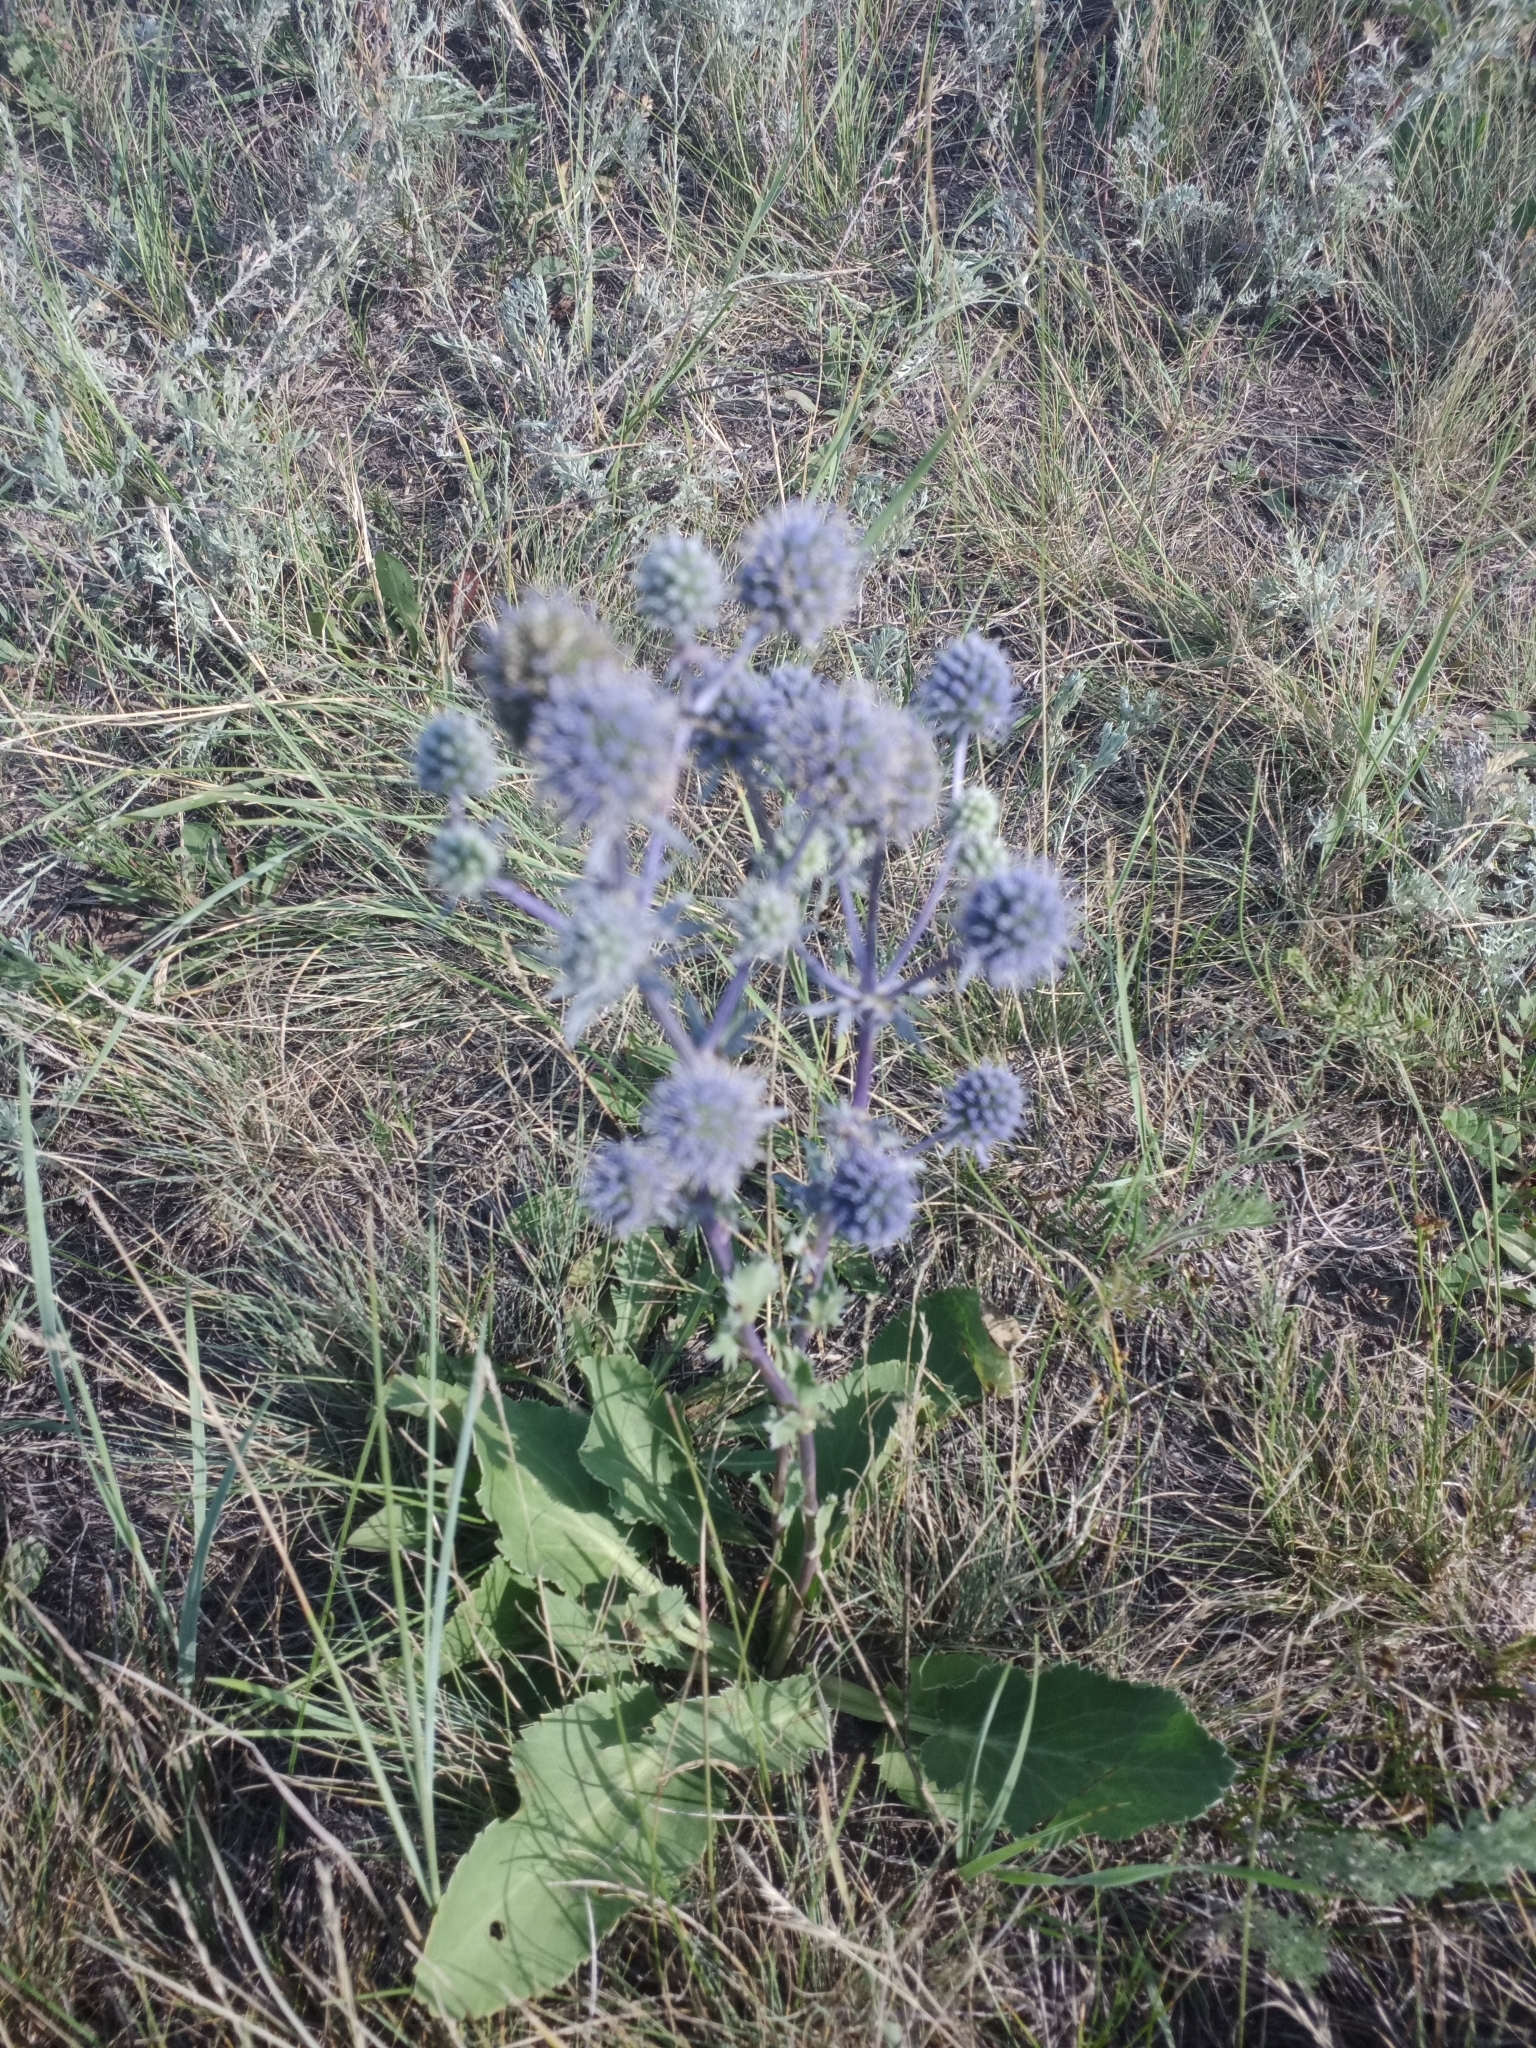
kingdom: Plantae
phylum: Tracheophyta
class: Magnoliopsida
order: Apiales
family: Apiaceae
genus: Eryngium
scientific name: Eryngium planum
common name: Blue eryngo
